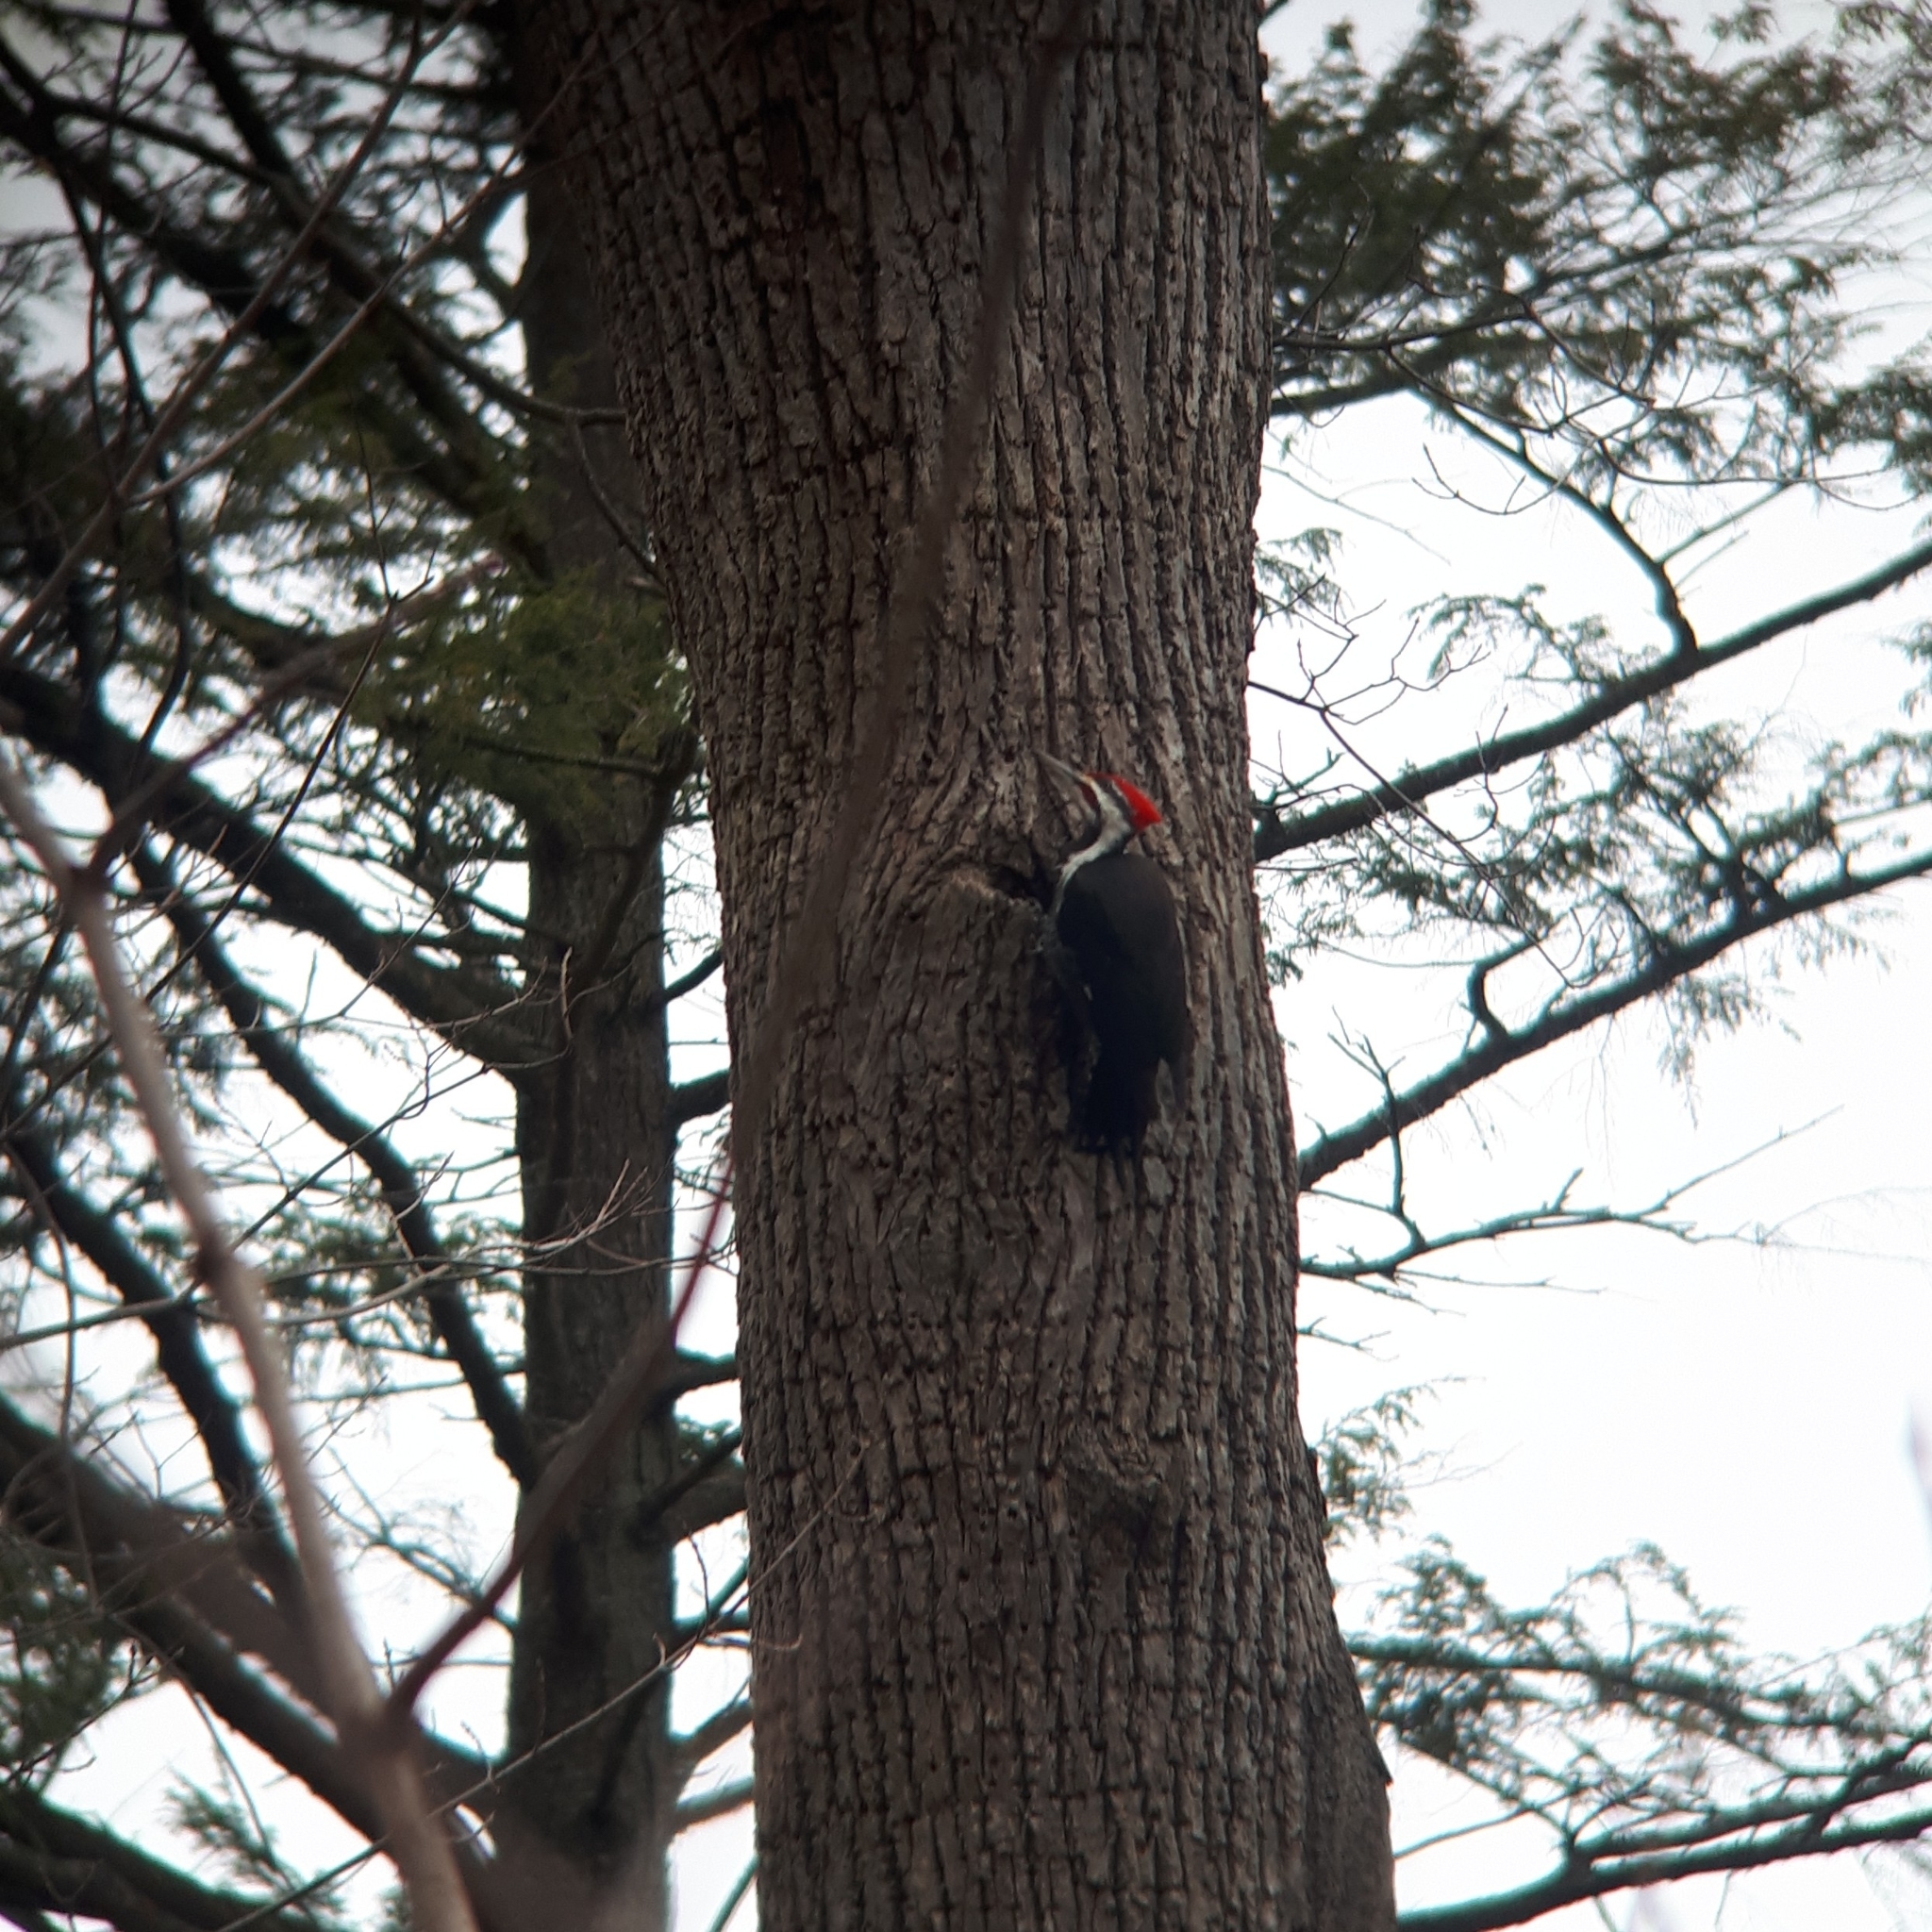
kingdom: Animalia
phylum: Chordata
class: Aves
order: Piciformes
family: Picidae
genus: Dryocopus
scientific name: Dryocopus pileatus
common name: Pileated woodpecker
